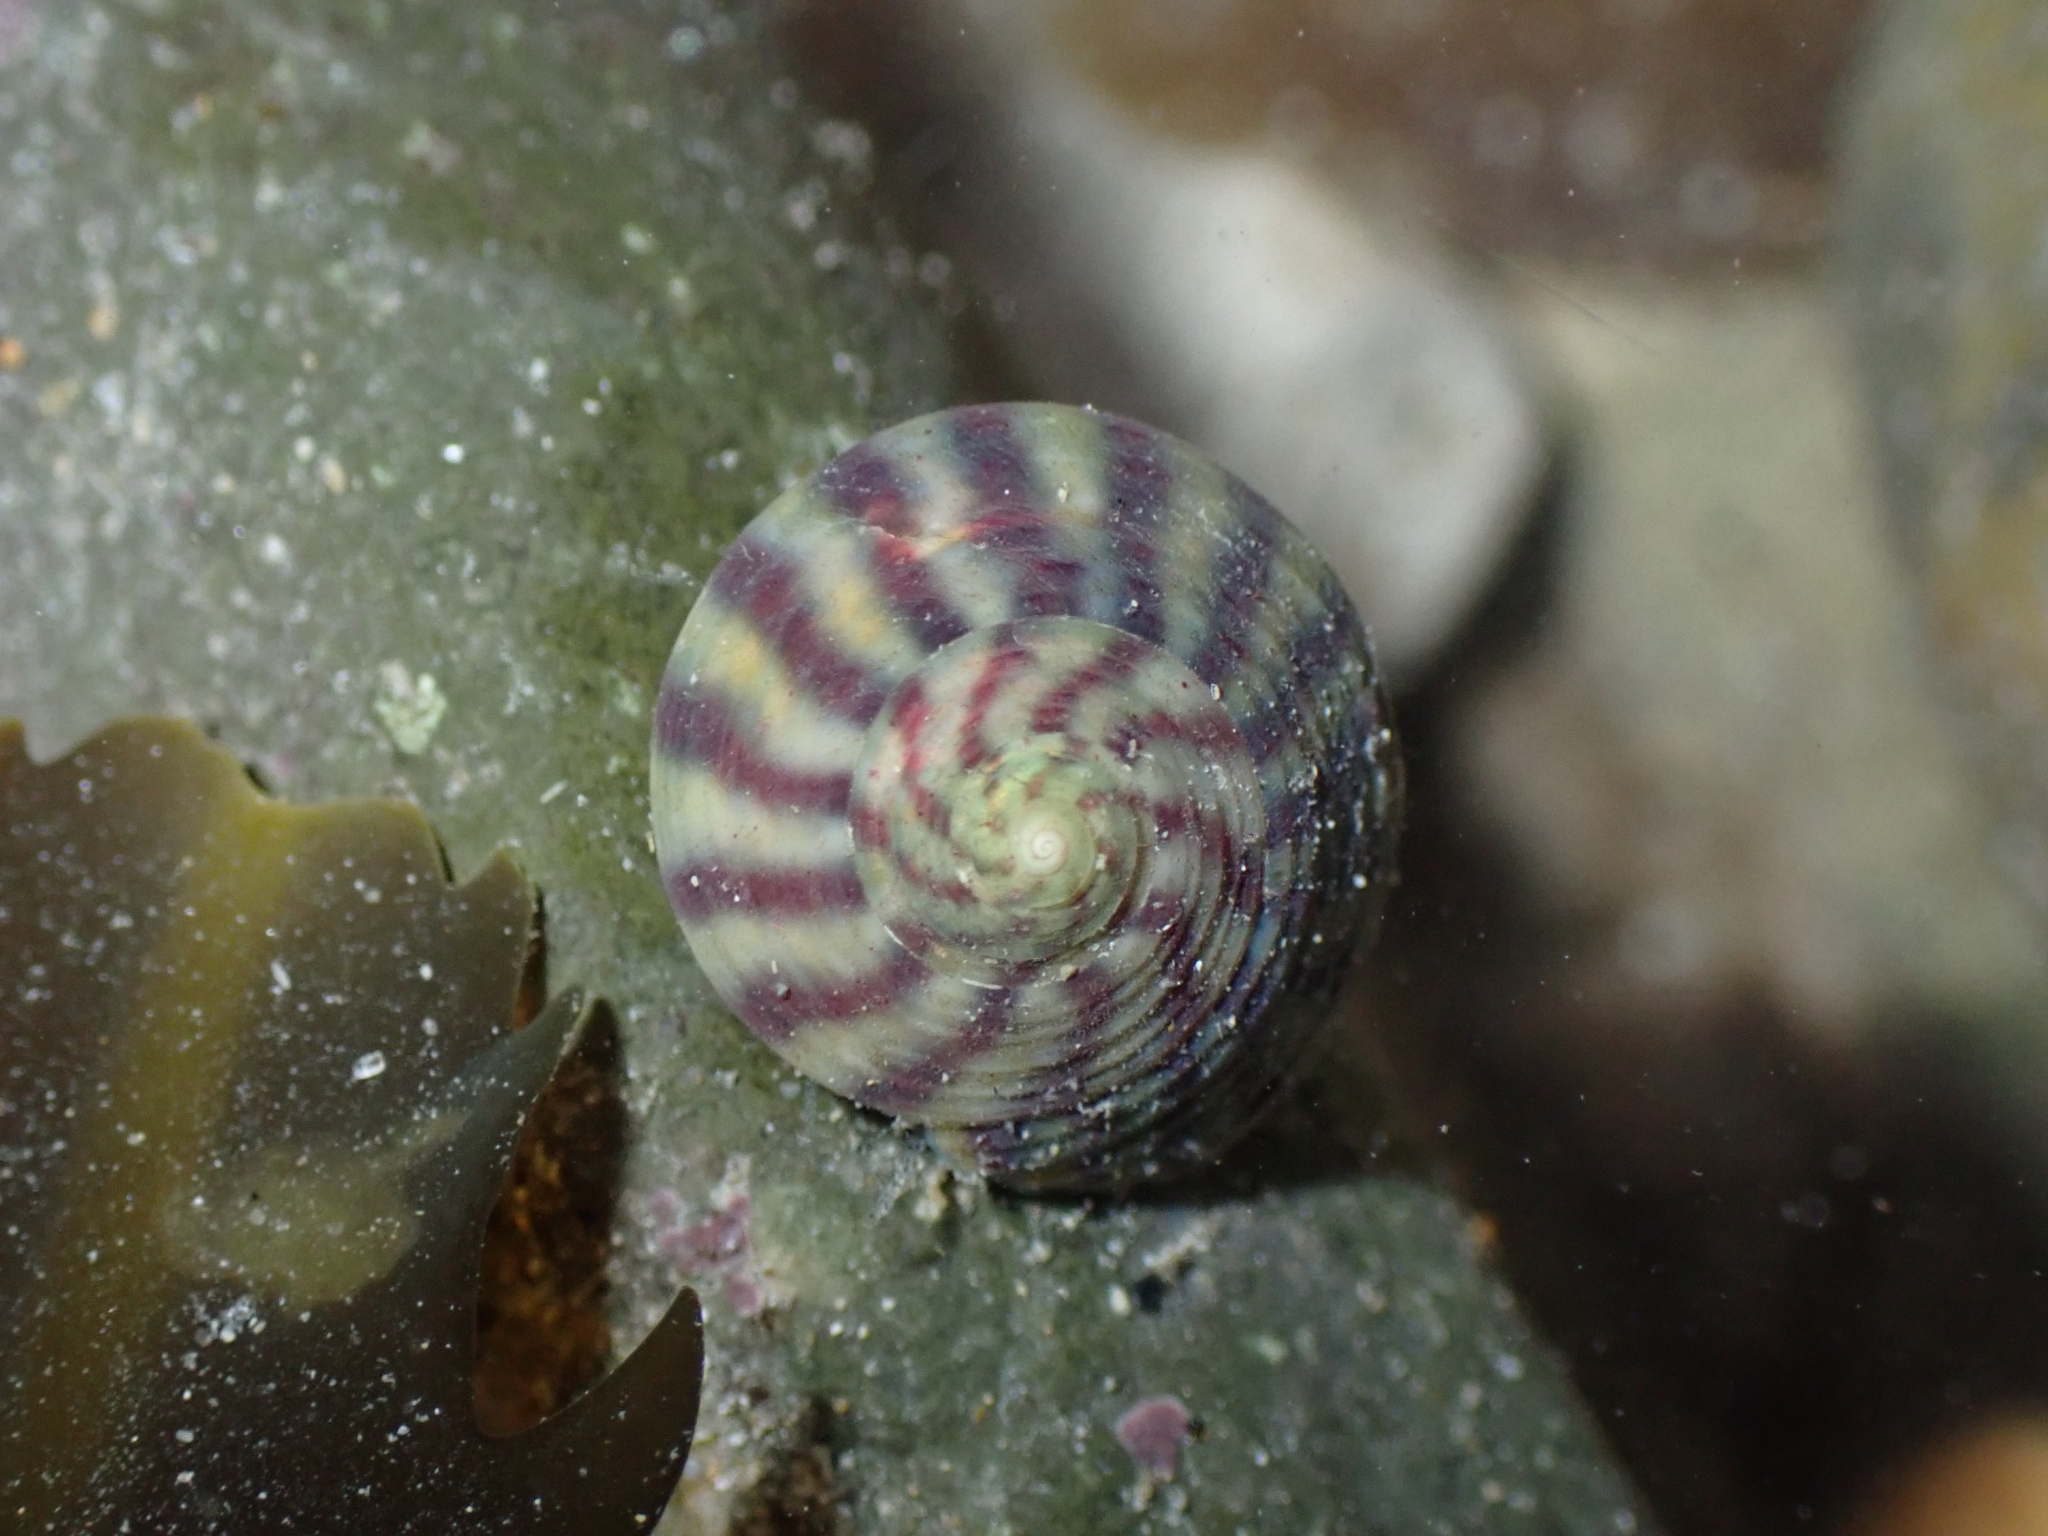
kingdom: Animalia
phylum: Mollusca
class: Gastropoda
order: Trochida
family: Trochidae
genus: Steromphala
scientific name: Steromphala umbilicalis
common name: Flat top shell
